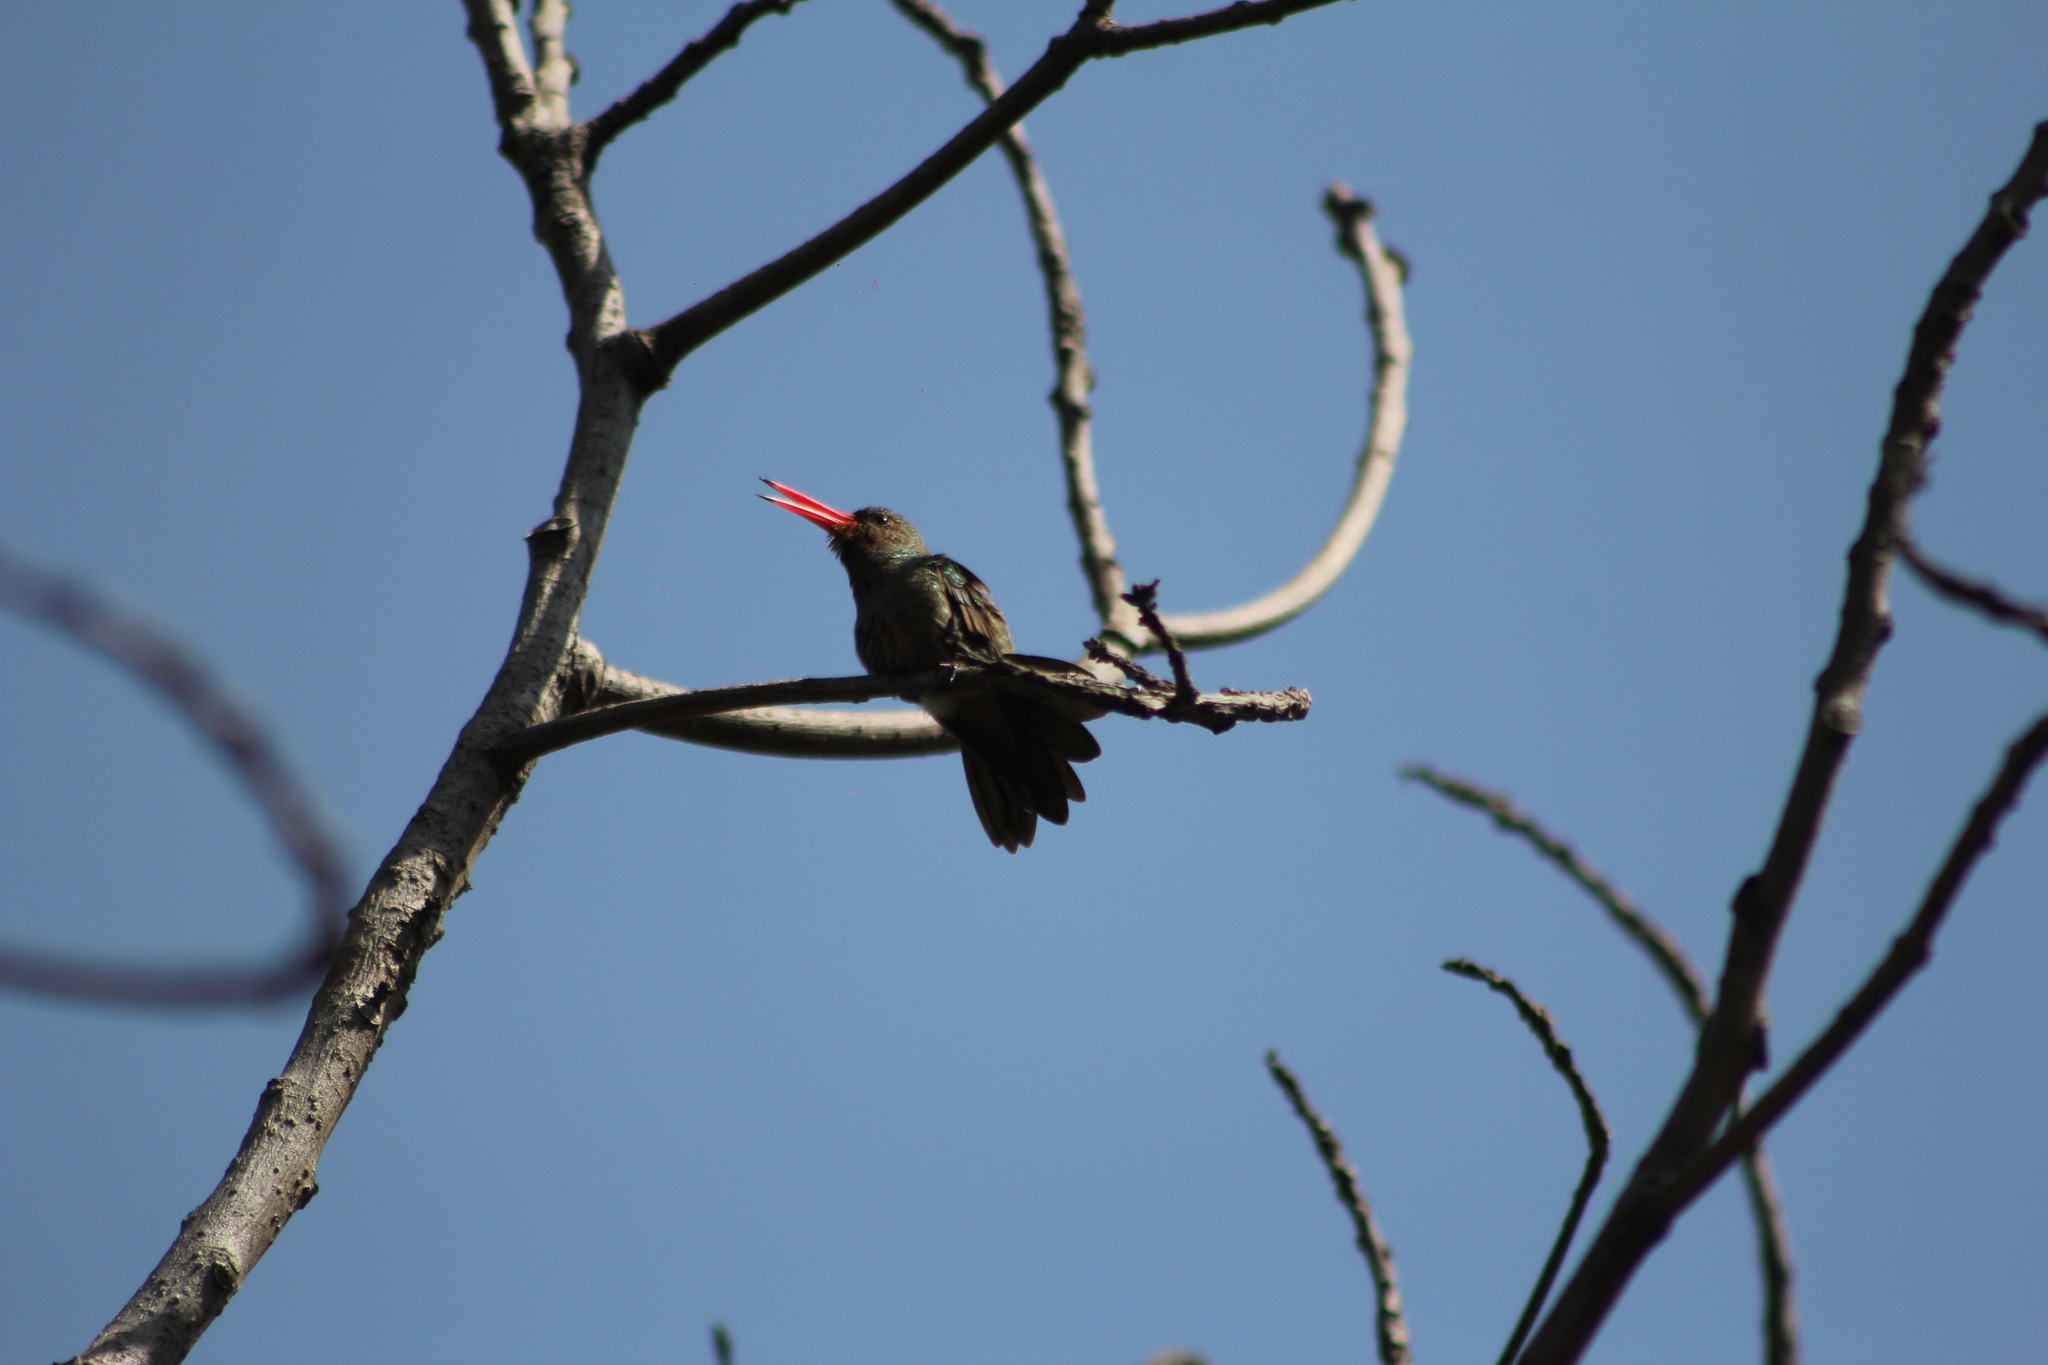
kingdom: Animalia
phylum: Chordata
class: Aves
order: Apodiformes
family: Trochilidae
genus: Hylocharis
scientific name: Hylocharis chrysura
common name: Gilded sapphire
